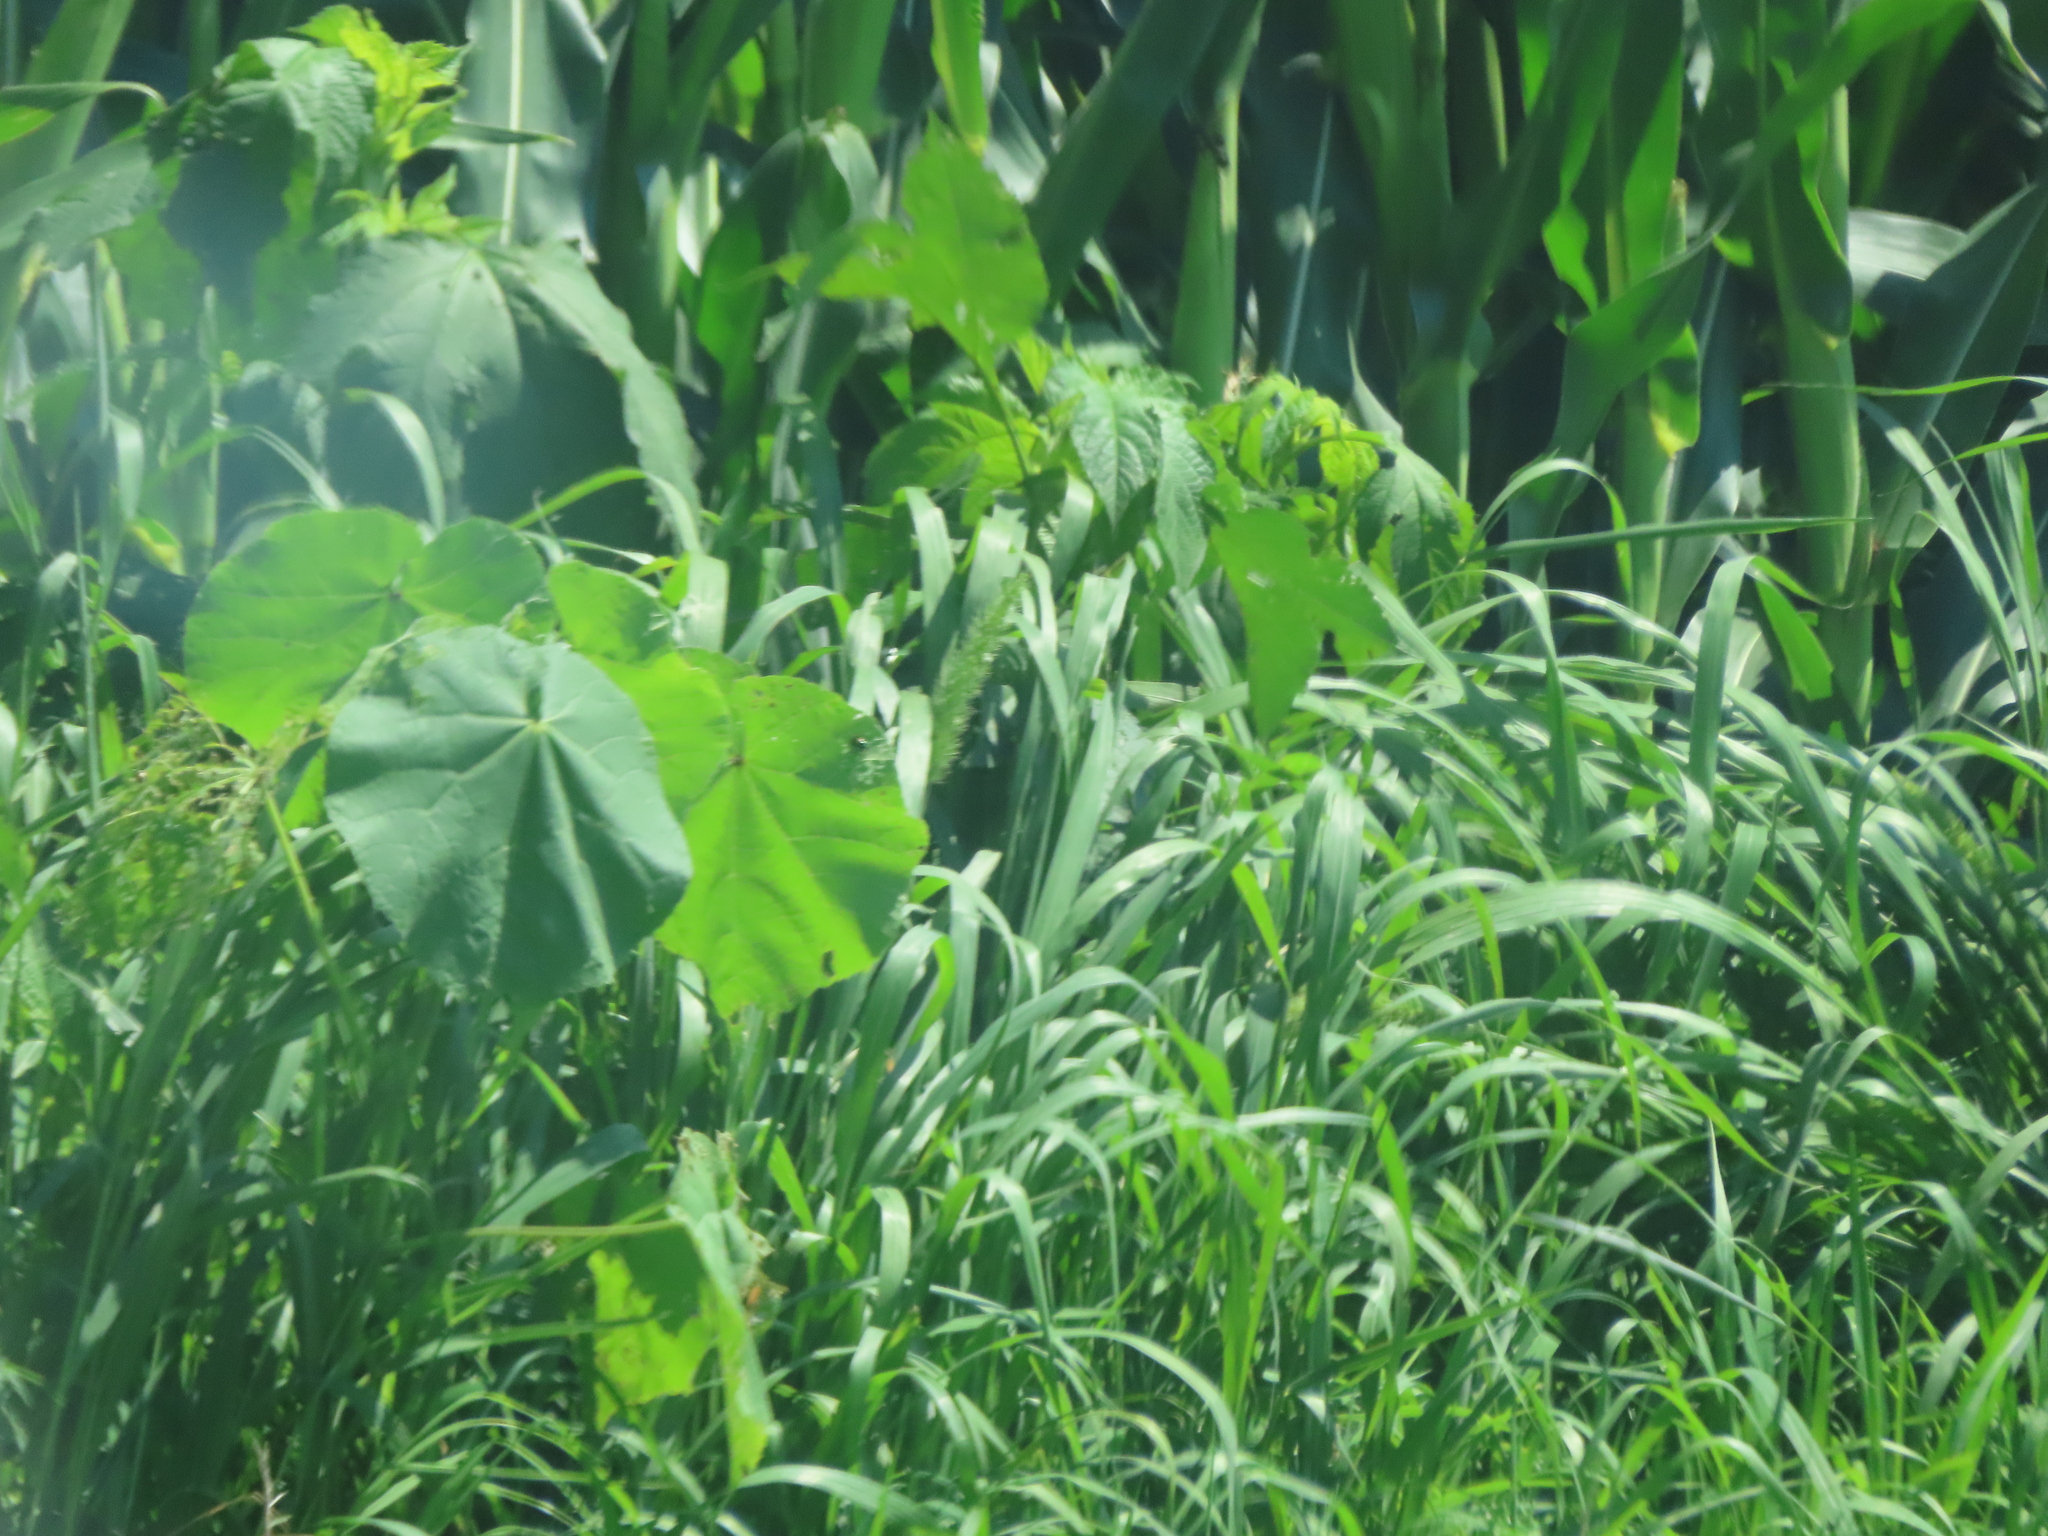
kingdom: Plantae
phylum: Tracheophyta
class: Magnoliopsida
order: Malvales
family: Malvaceae
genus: Abutilon
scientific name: Abutilon theophrasti
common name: Velvetleaf
